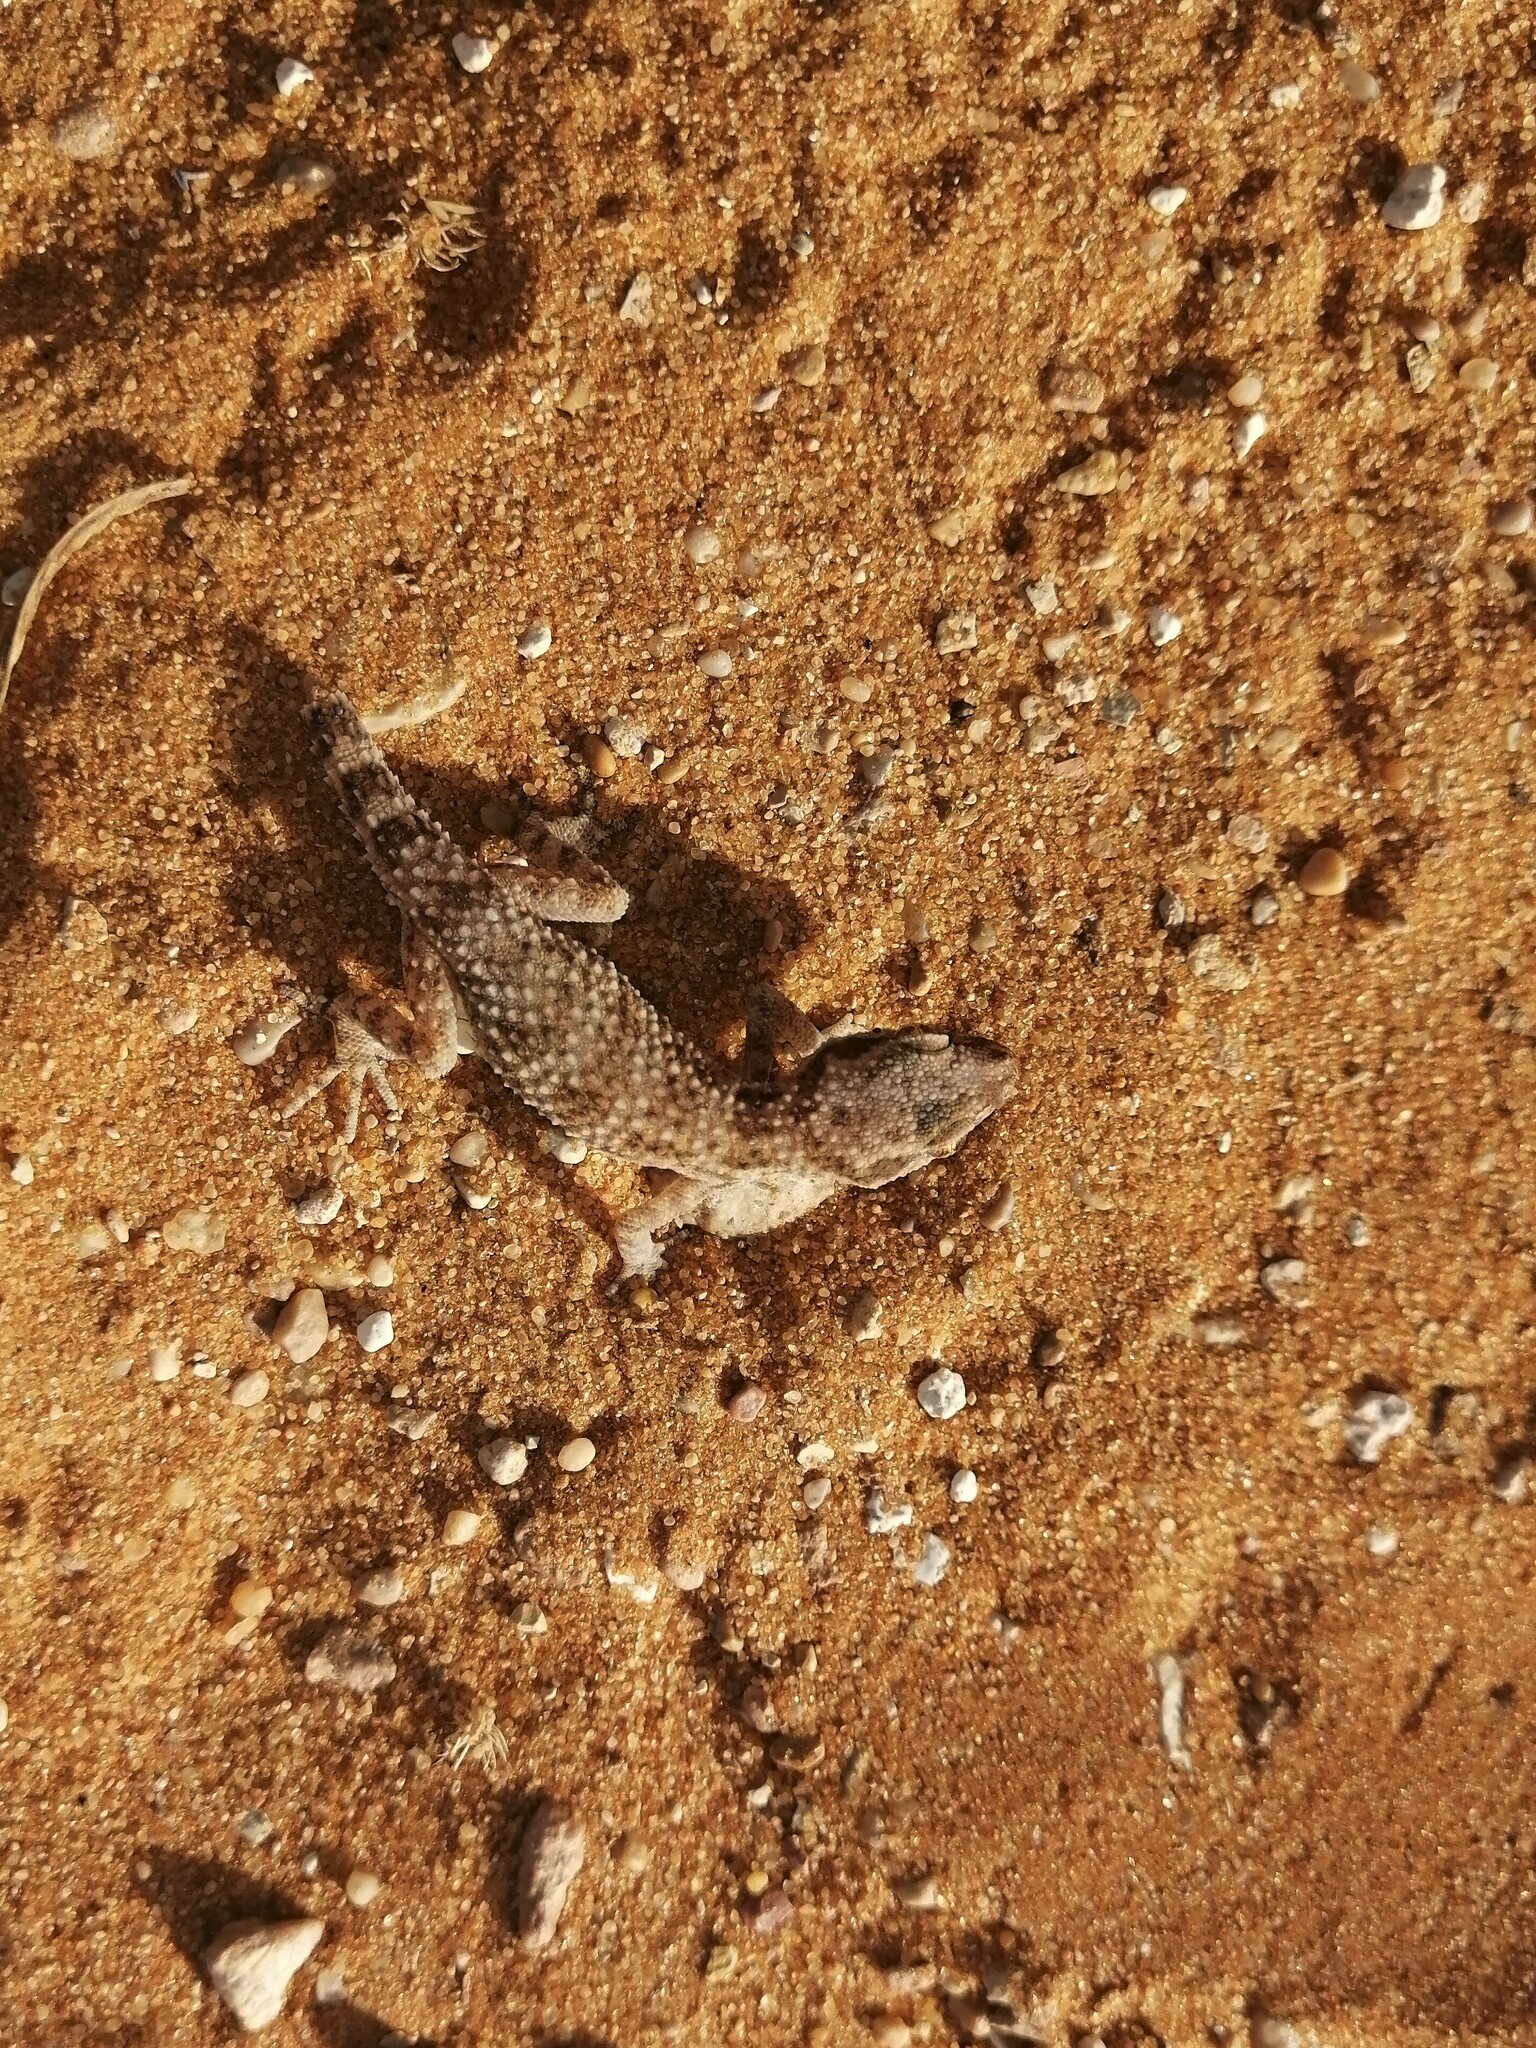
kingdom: Animalia
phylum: Chordata
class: Squamata
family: Gekkonidae
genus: Bunopus
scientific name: Bunopus tuberculatus
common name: Southern tuberculated gecko
